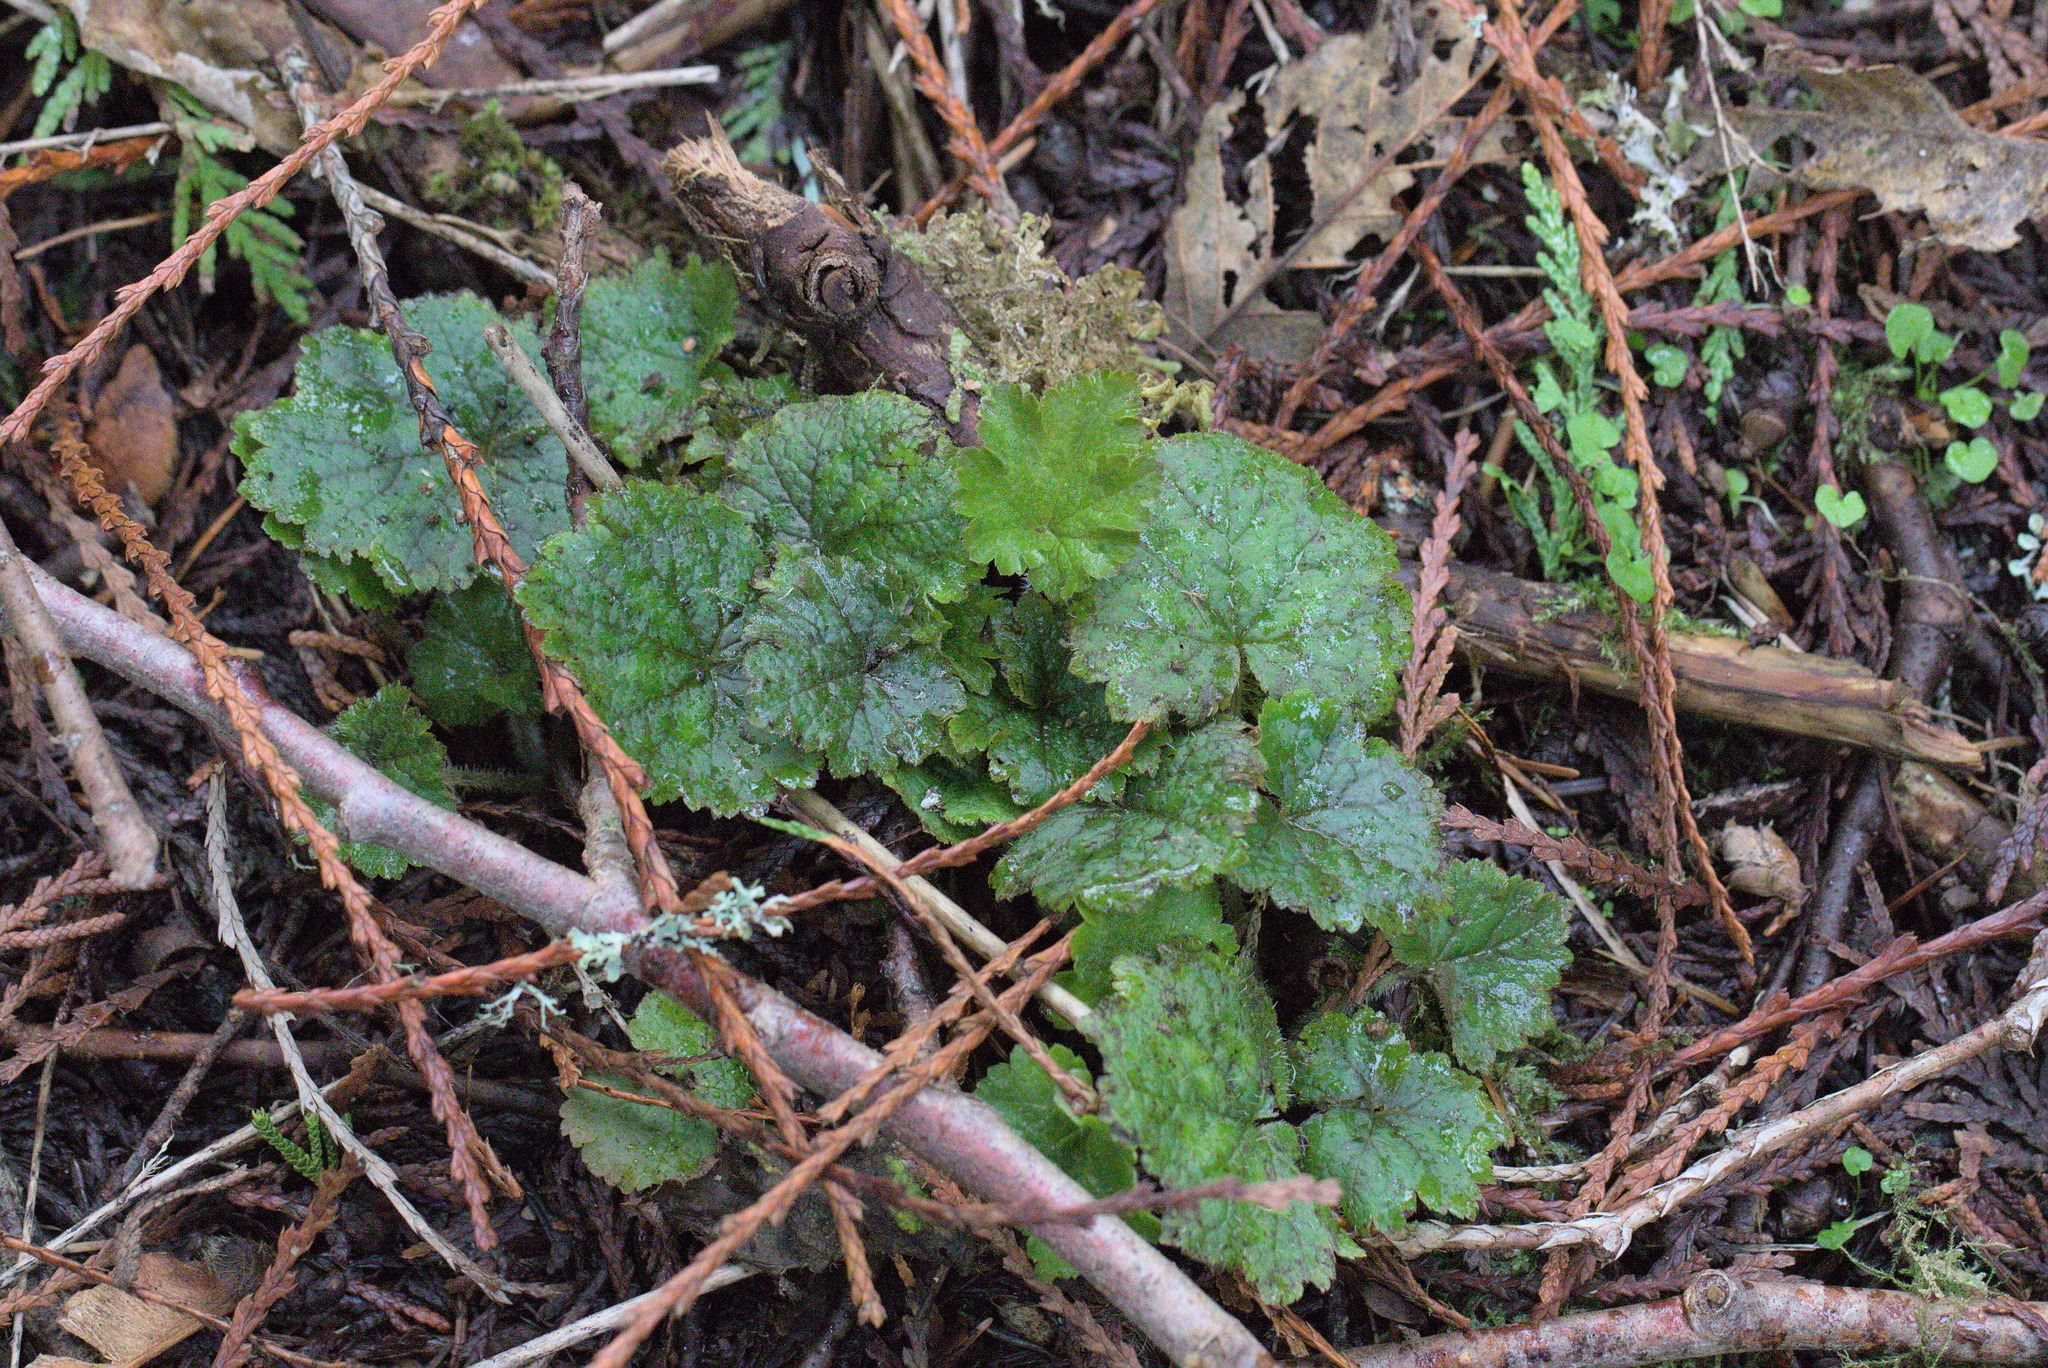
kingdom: Plantae
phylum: Tracheophyta
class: Magnoliopsida
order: Saxifragales
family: Saxifragaceae
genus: Tellima
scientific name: Tellima grandiflora
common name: Fringecups
